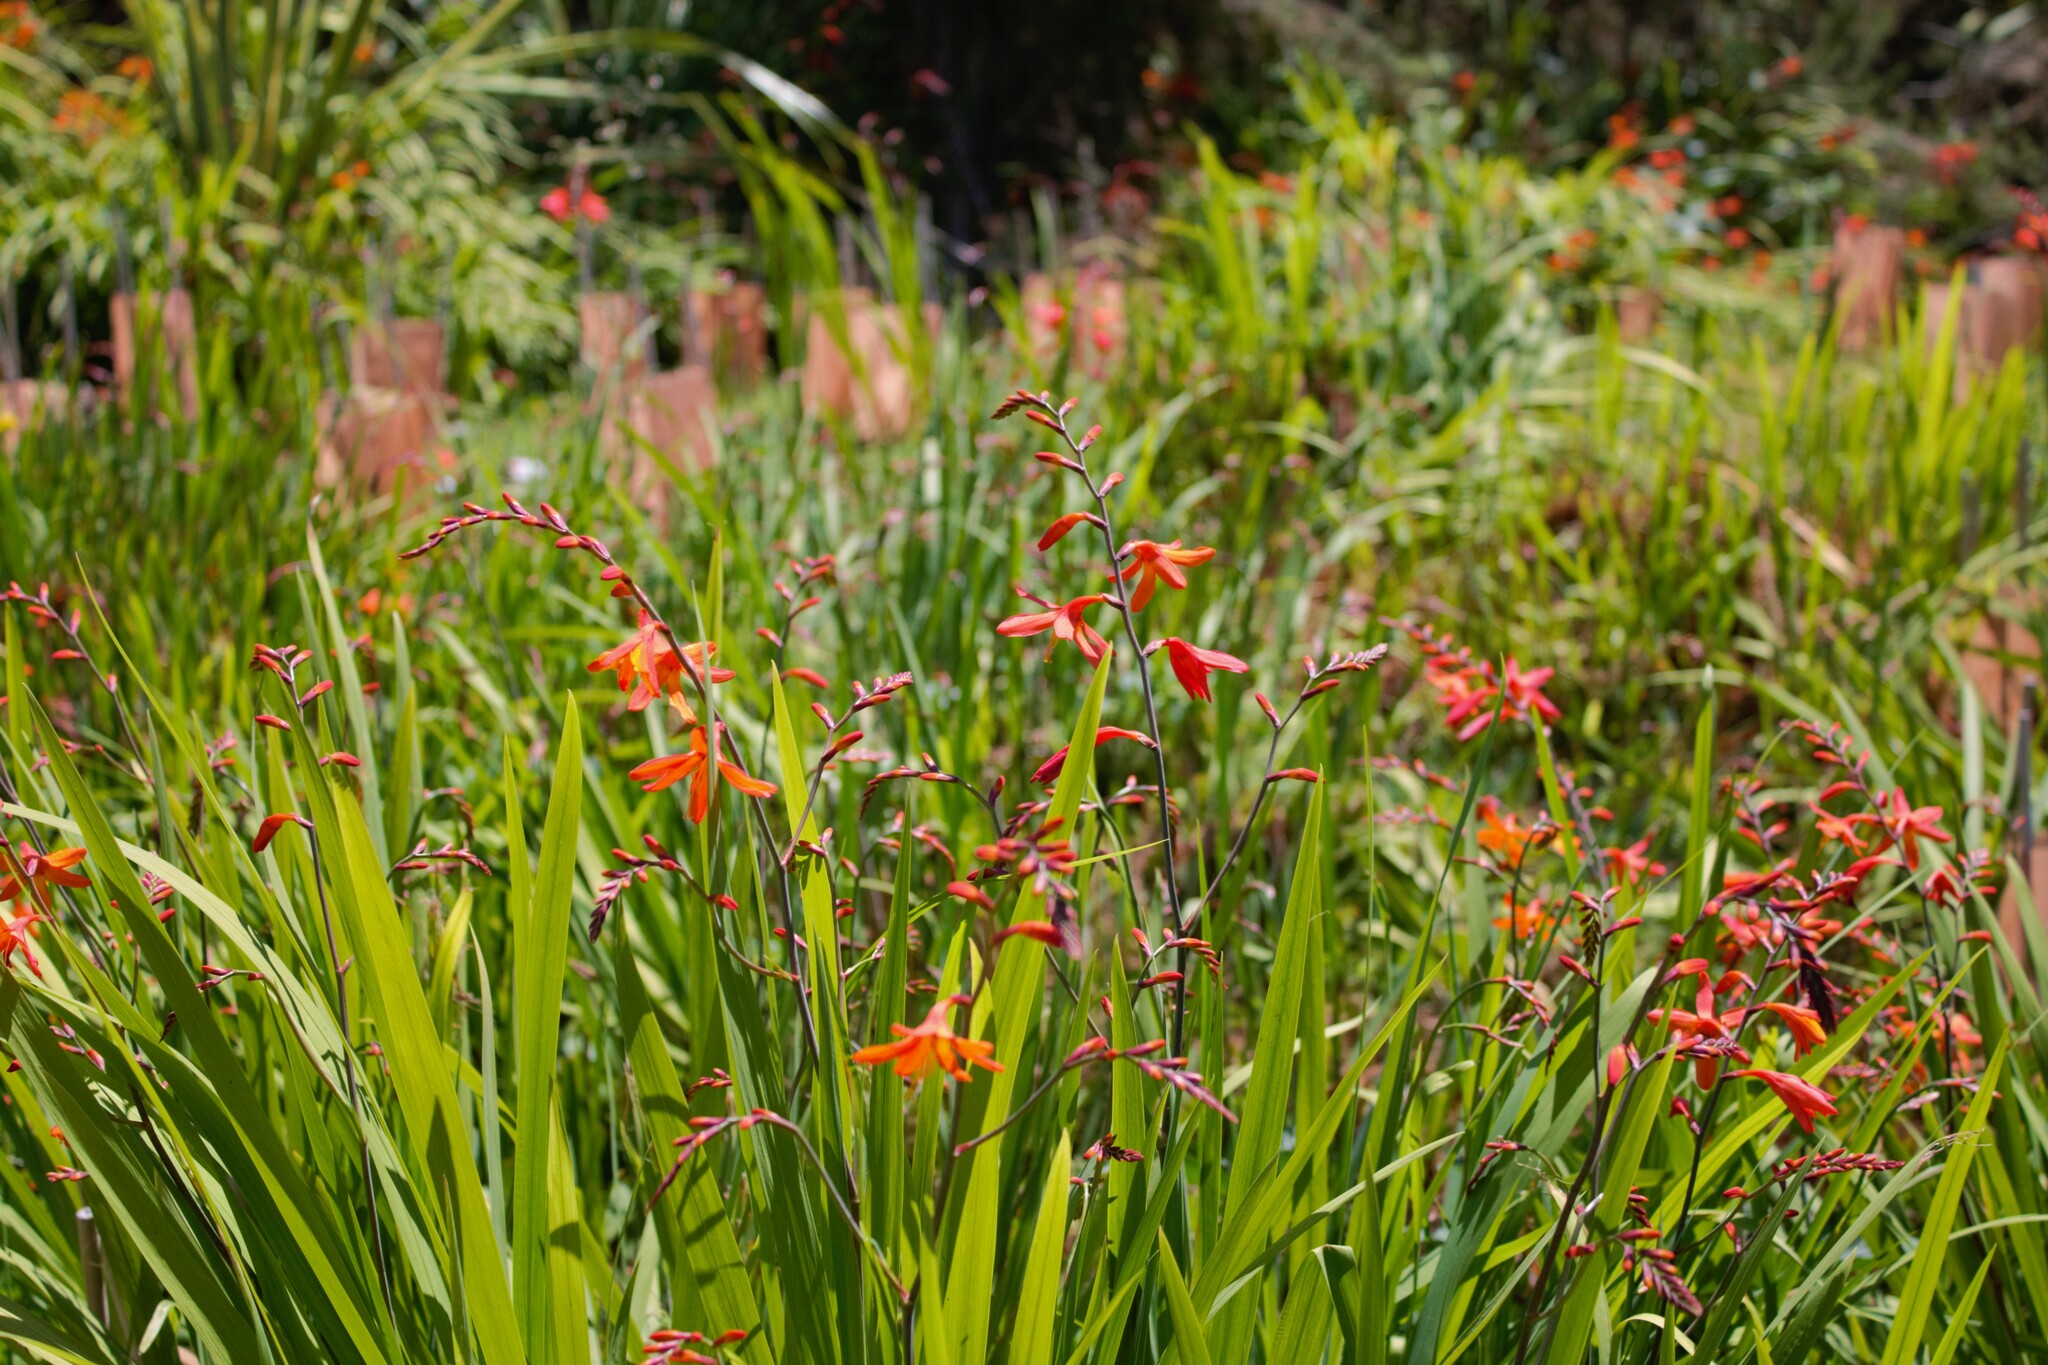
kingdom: Plantae
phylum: Tracheophyta
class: Liliopsida
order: Asparagales
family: Iridaceae
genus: Crocosmia
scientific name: Crocosmia crocosmiiflora
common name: Montbretia
